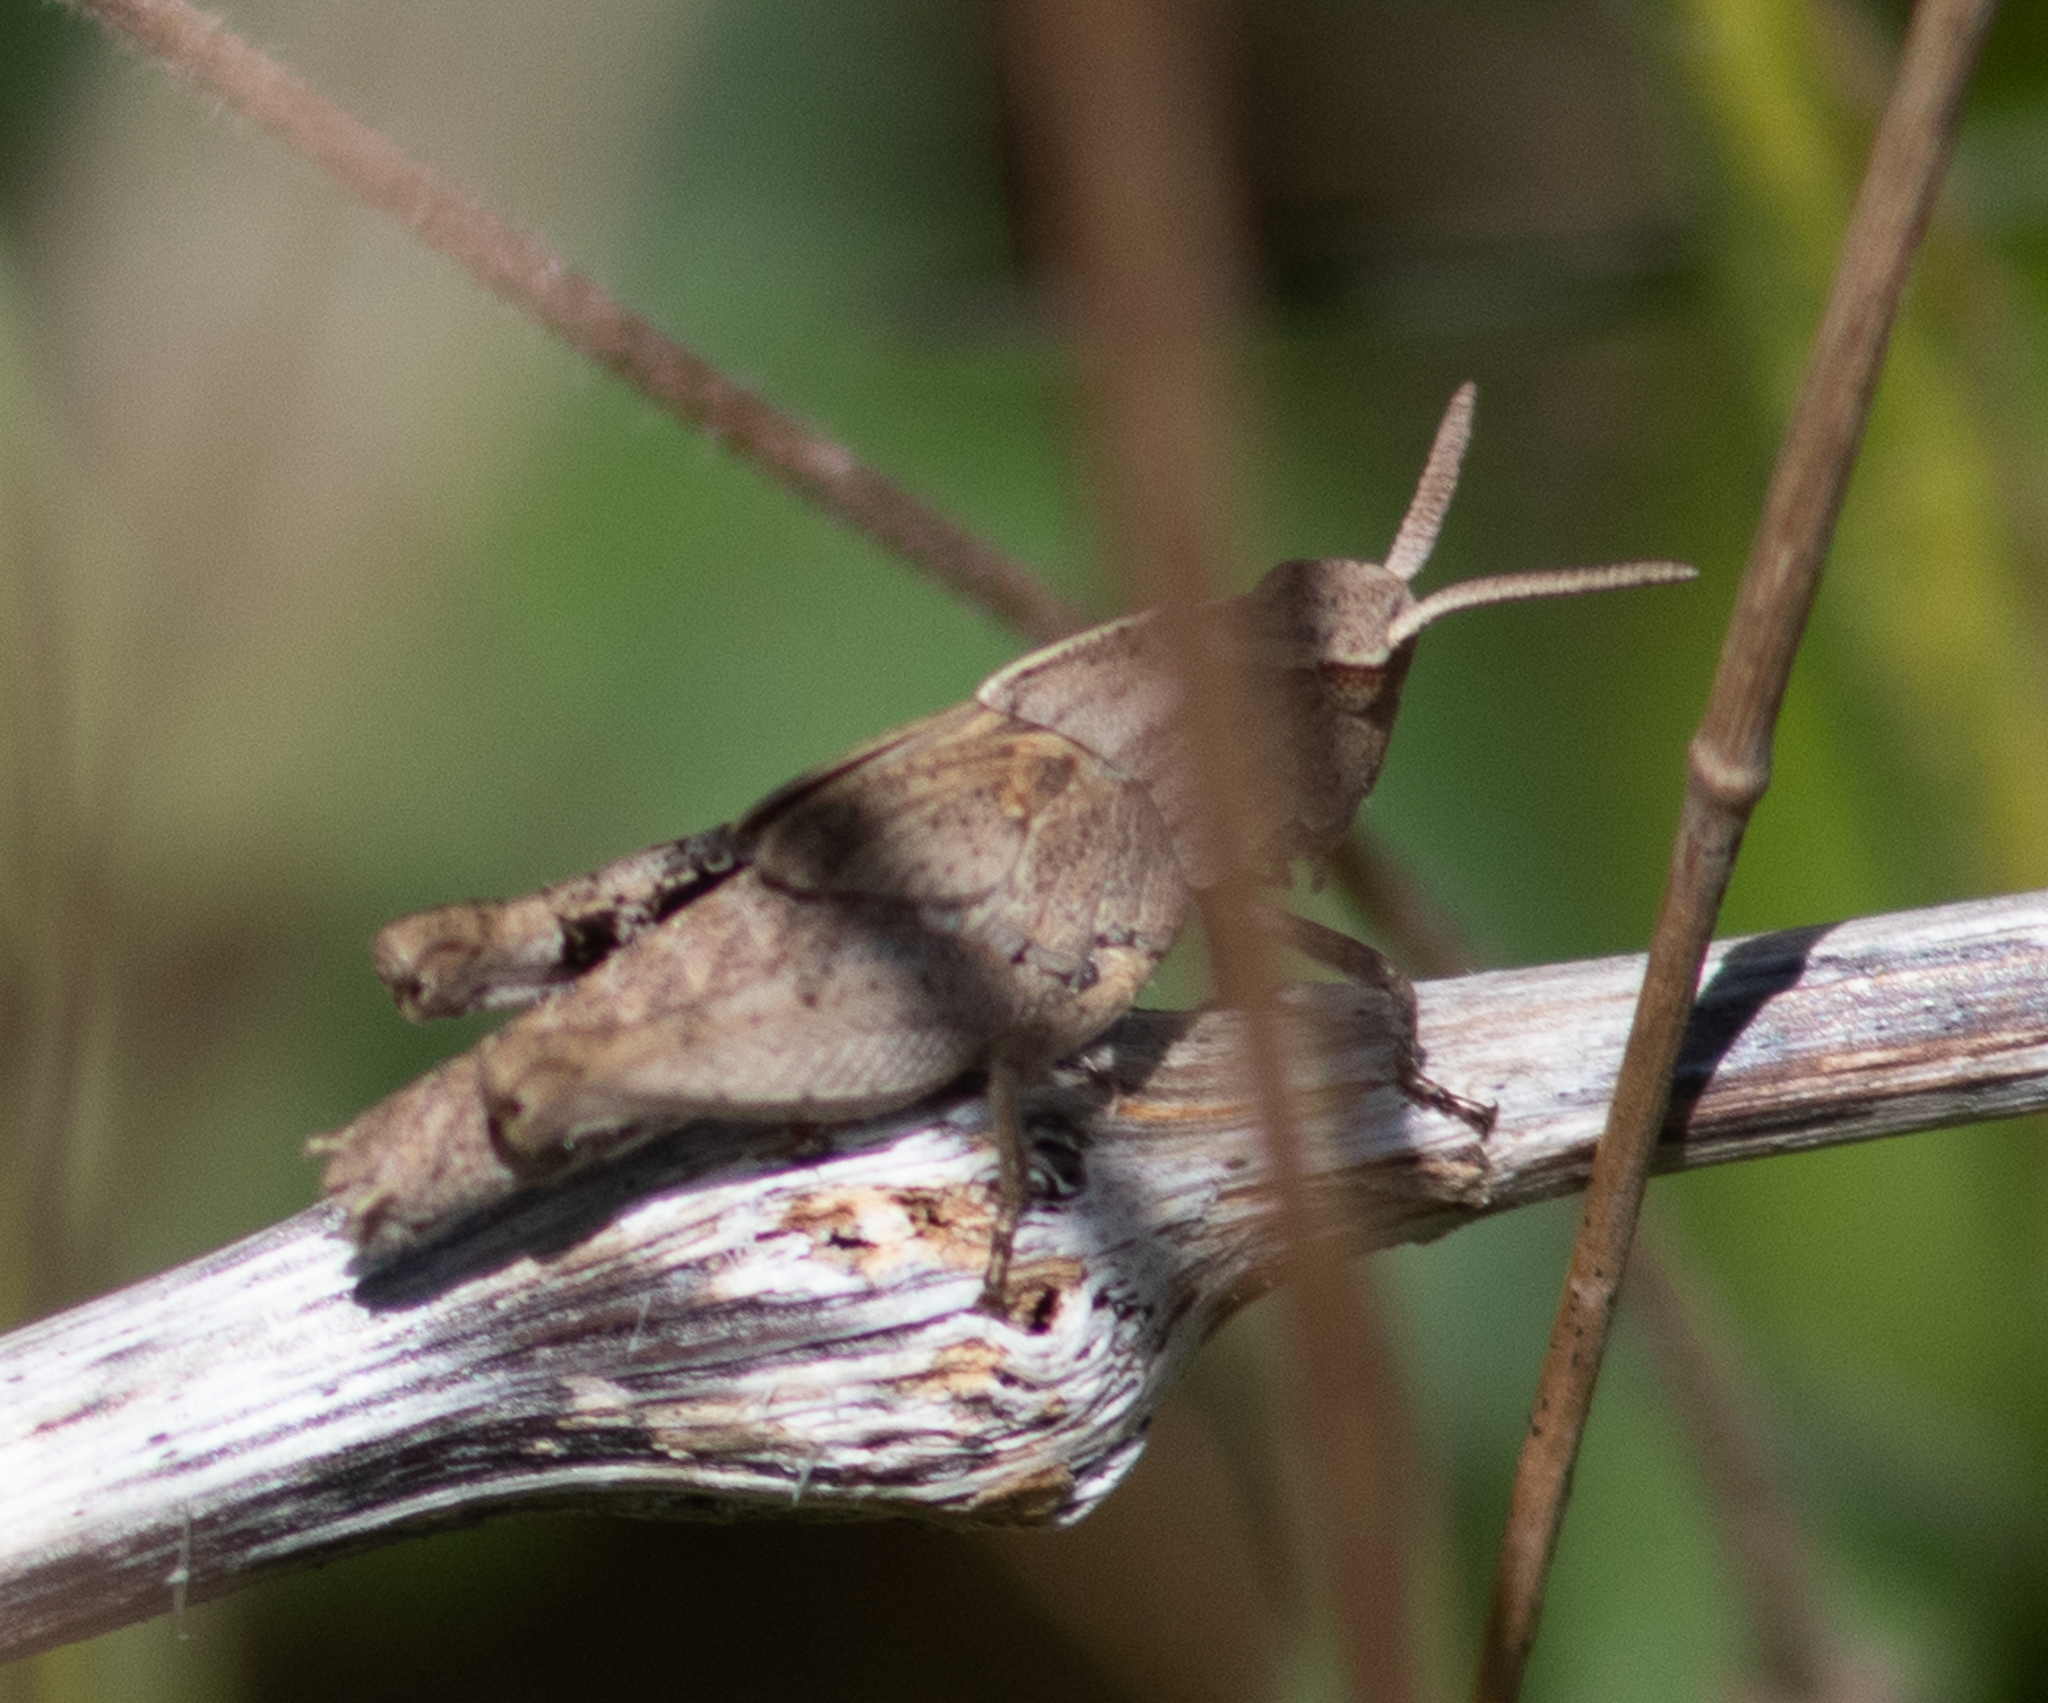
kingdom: Animalia
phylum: Arthropoda
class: Insecta
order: Orthoptera
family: Acrididae
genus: Chortophaga
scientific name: Chortophaga viridifasciata
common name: Green-striped grasshopper
